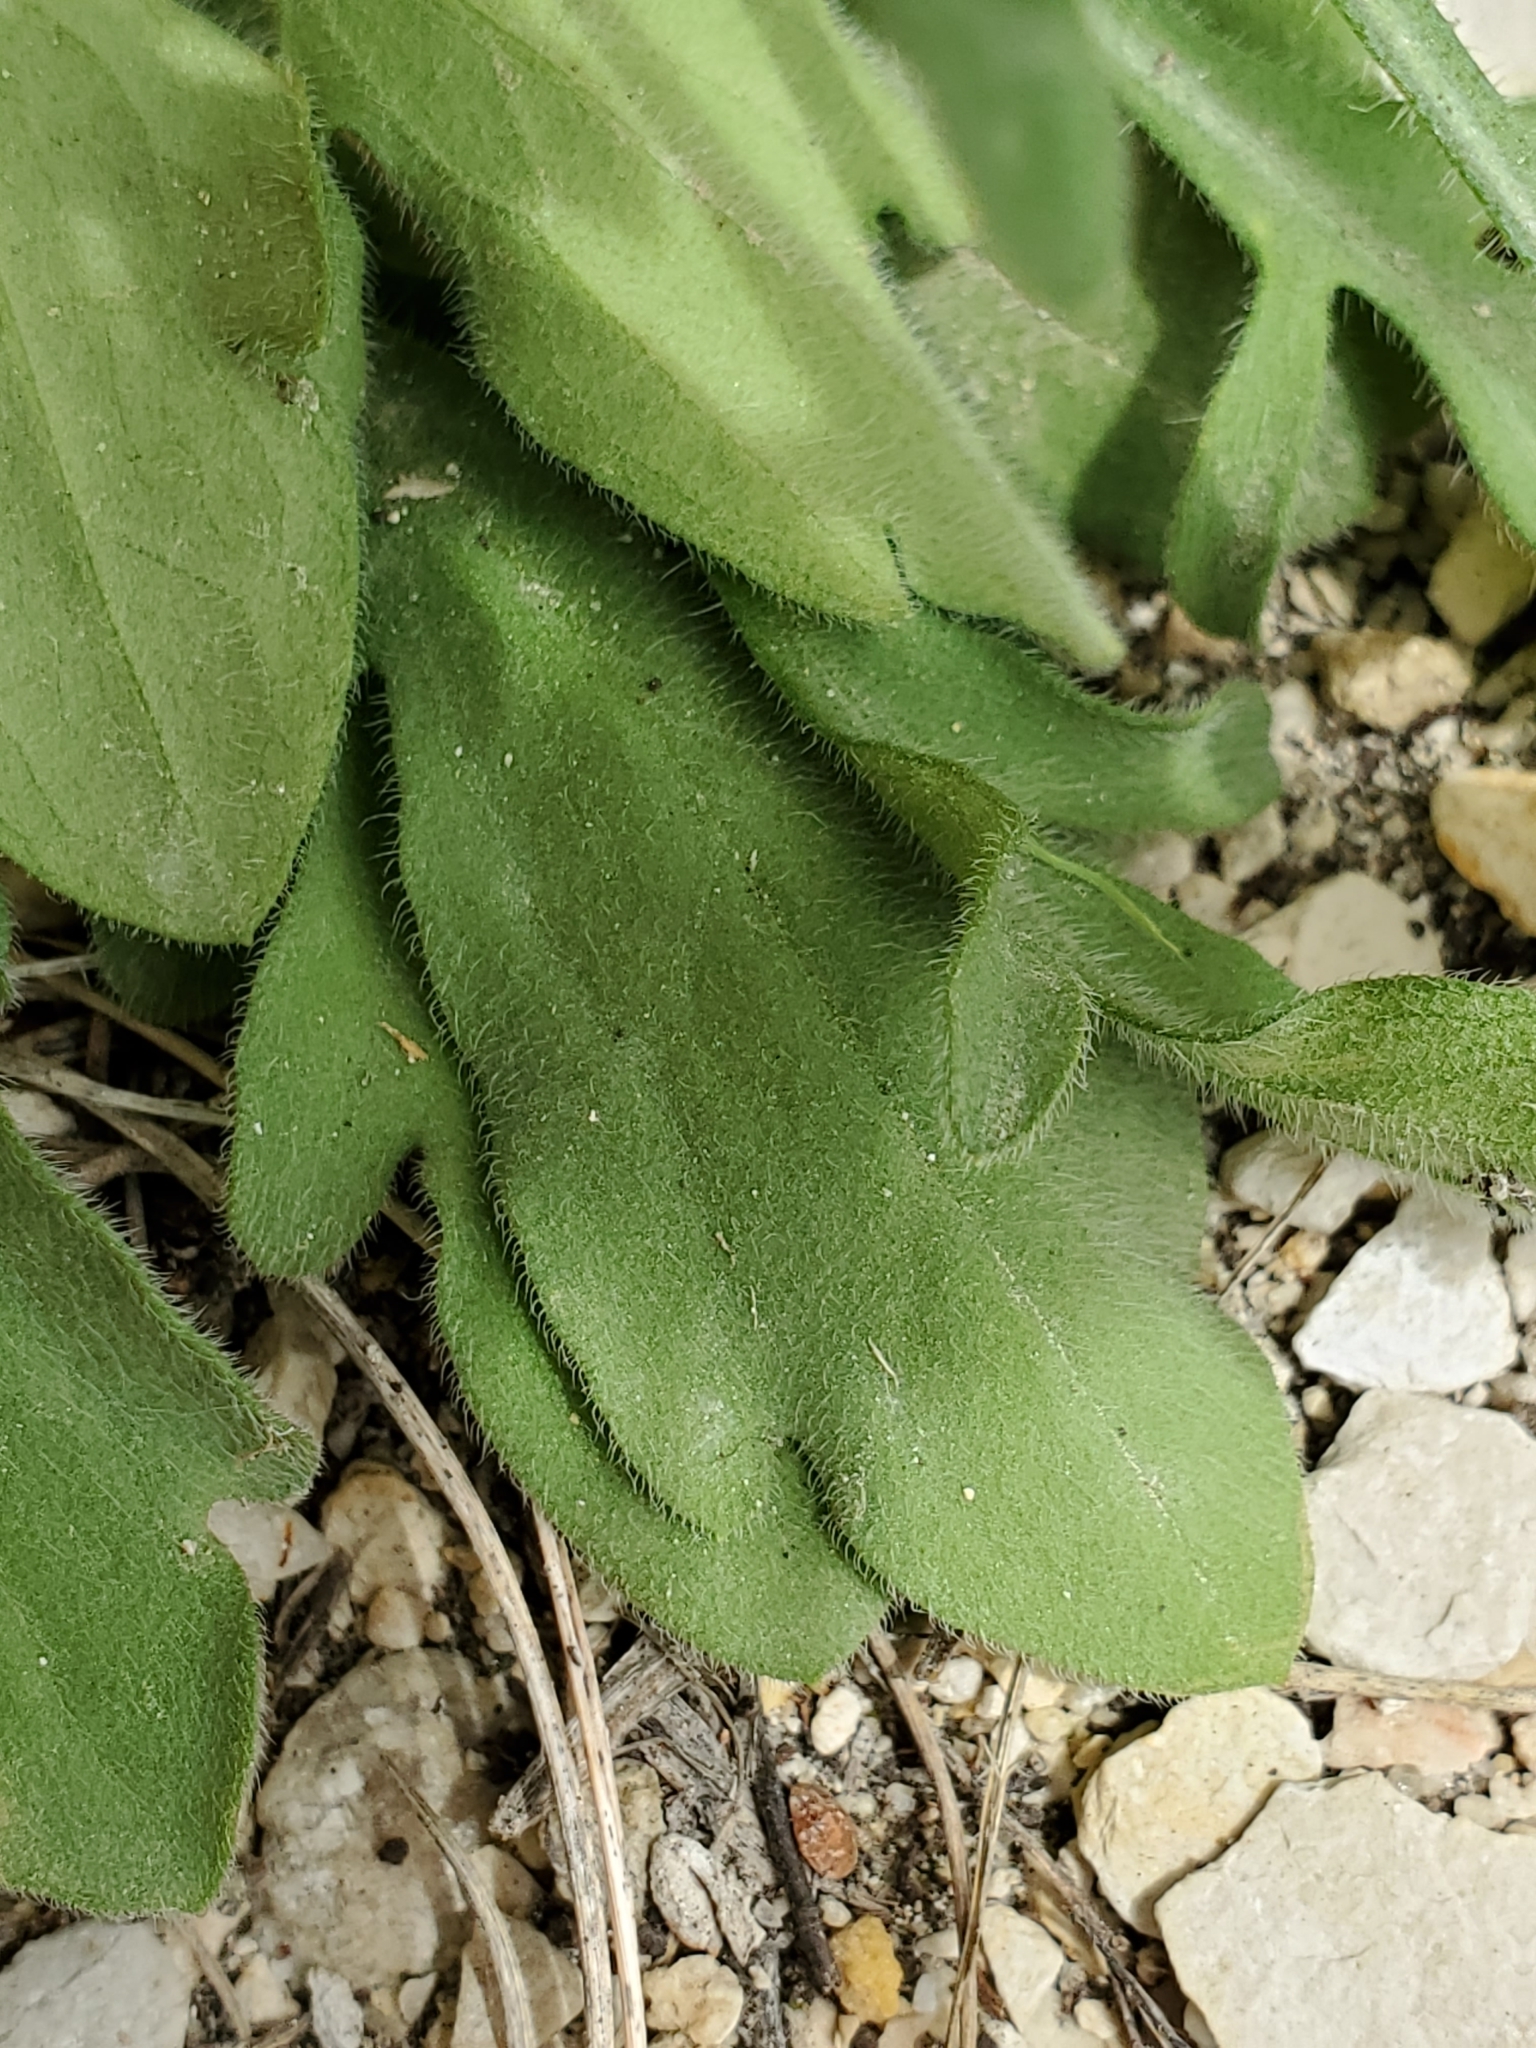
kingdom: Plantae
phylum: Tracheophyta
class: Magnoliopsida
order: Asterales
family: Asteraceae
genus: Erigeron
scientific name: Erigeron modestus
